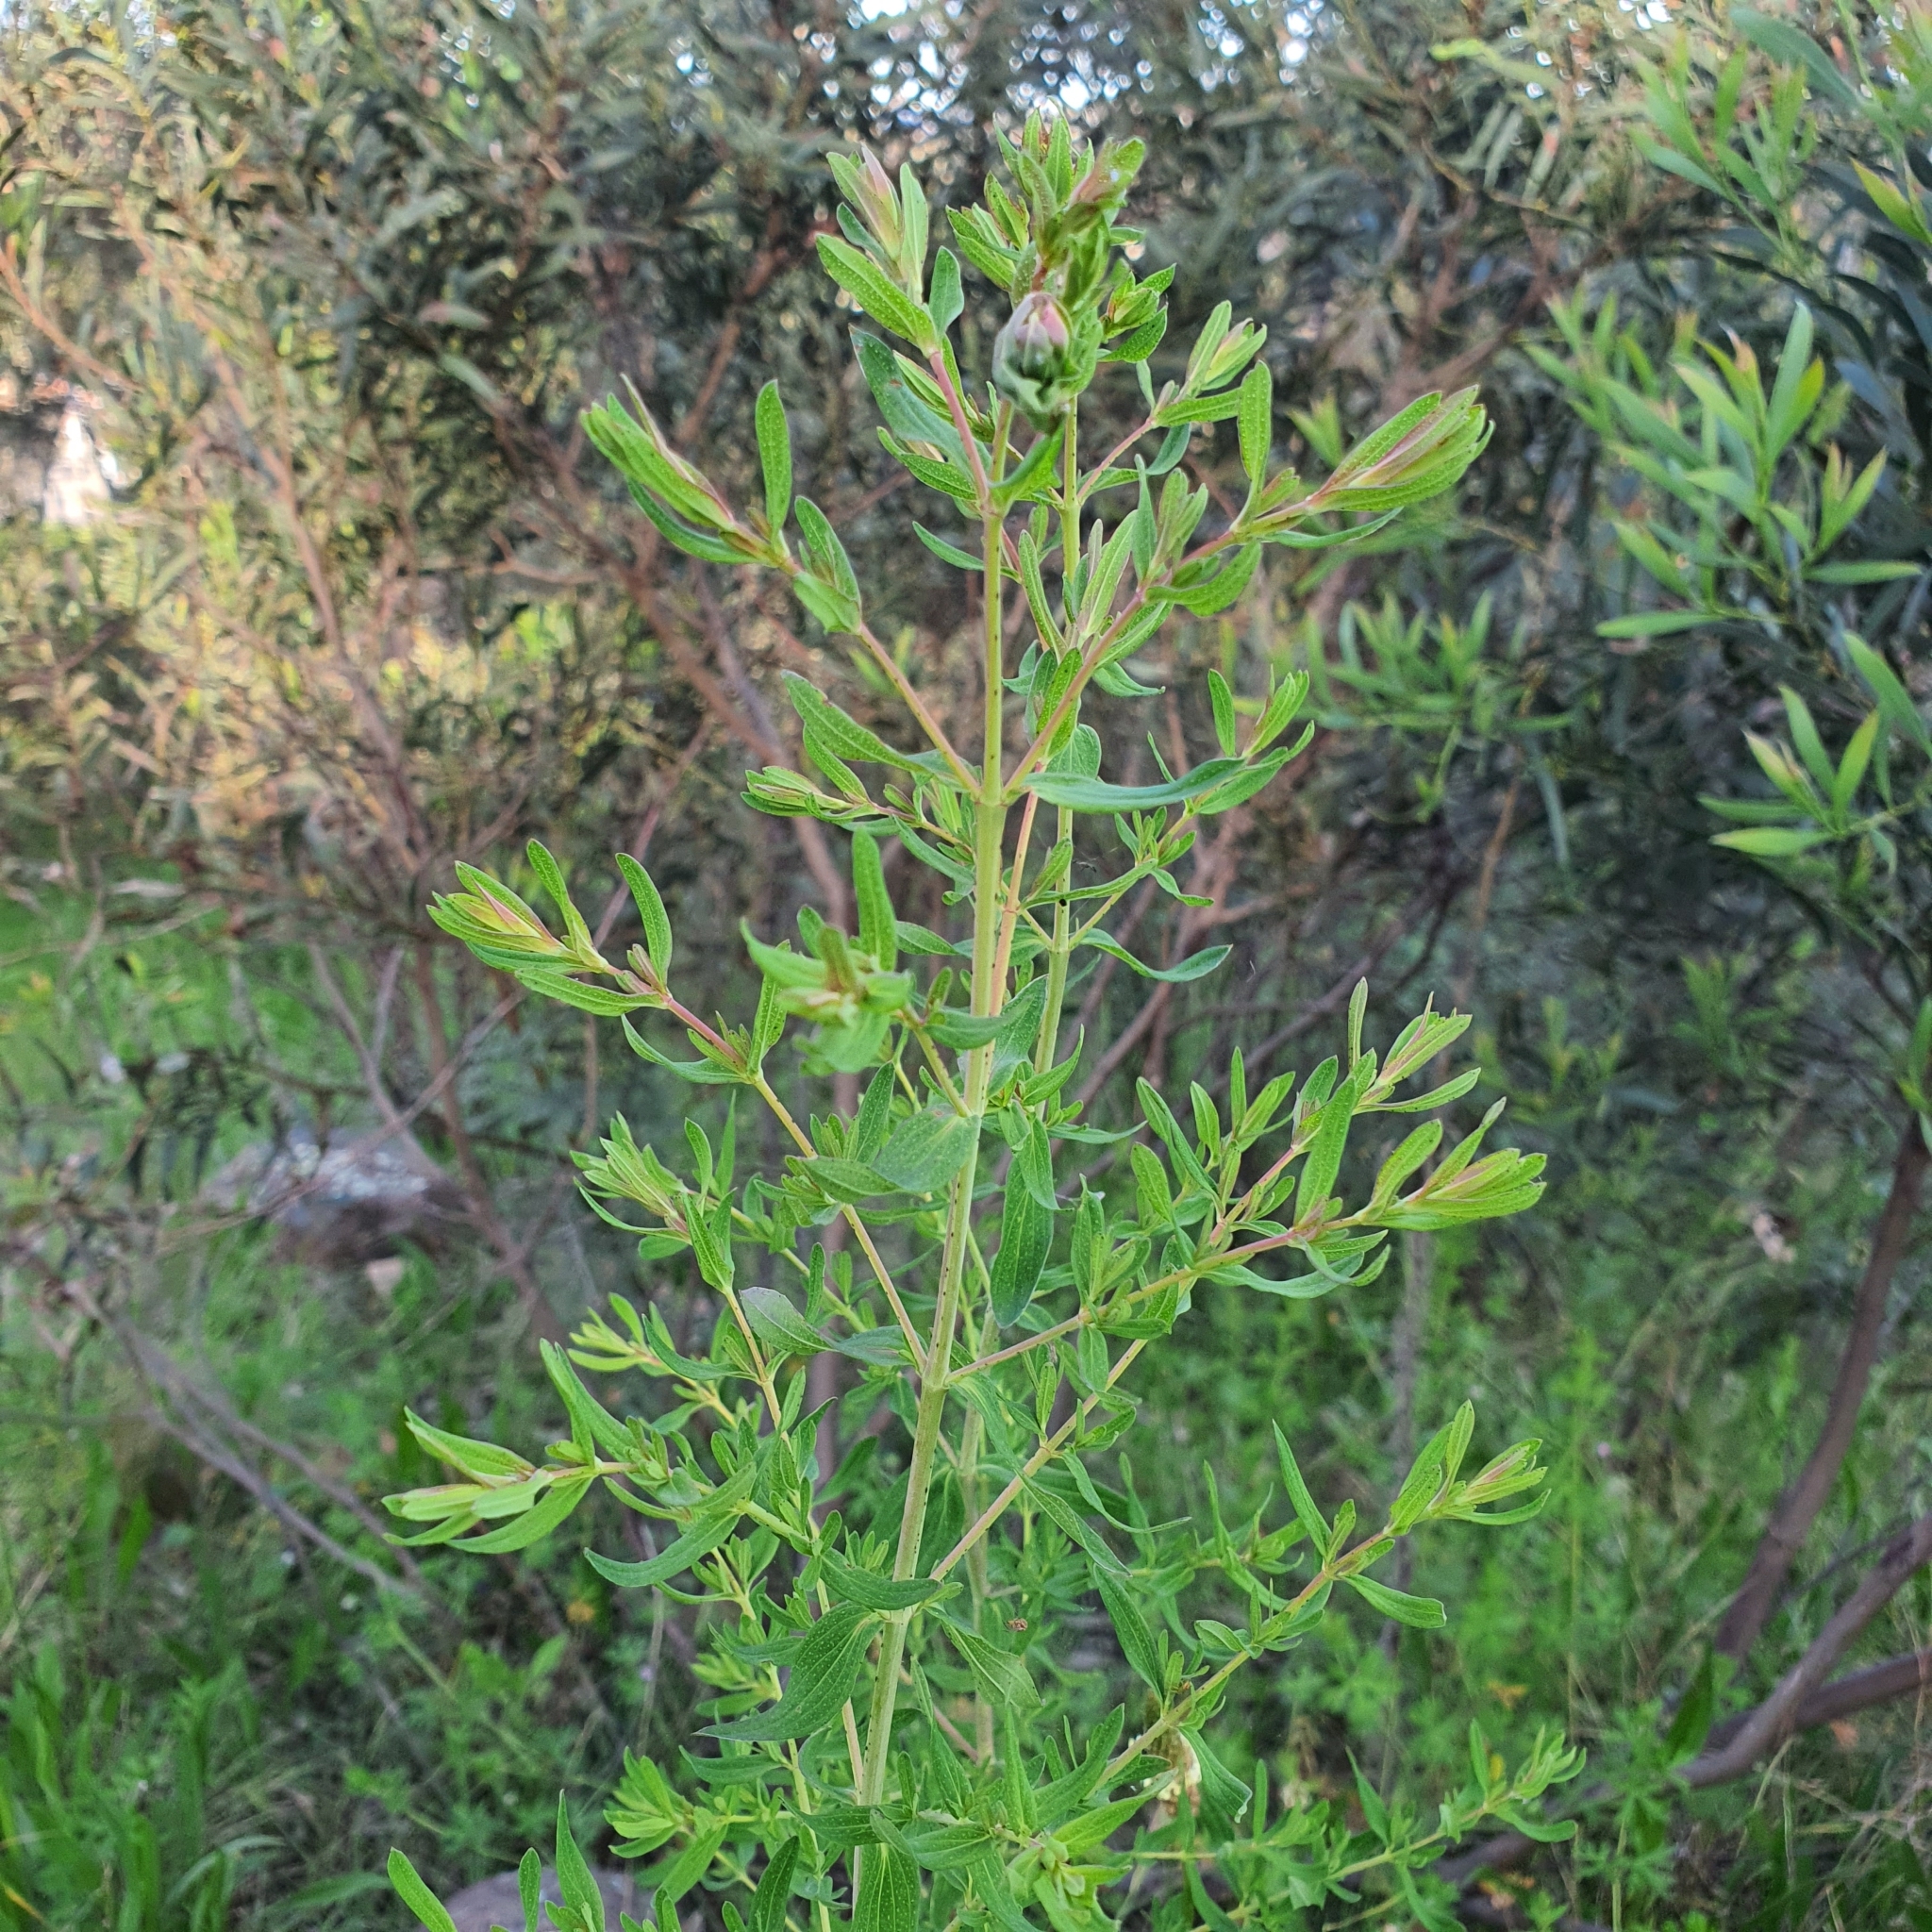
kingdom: Plantae
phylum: Tracheophyta
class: Magnoliopsida
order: Malpighiales
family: Hypericaceae
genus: Hypericum
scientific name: Hypericum perforatum
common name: Common st. johnswort
